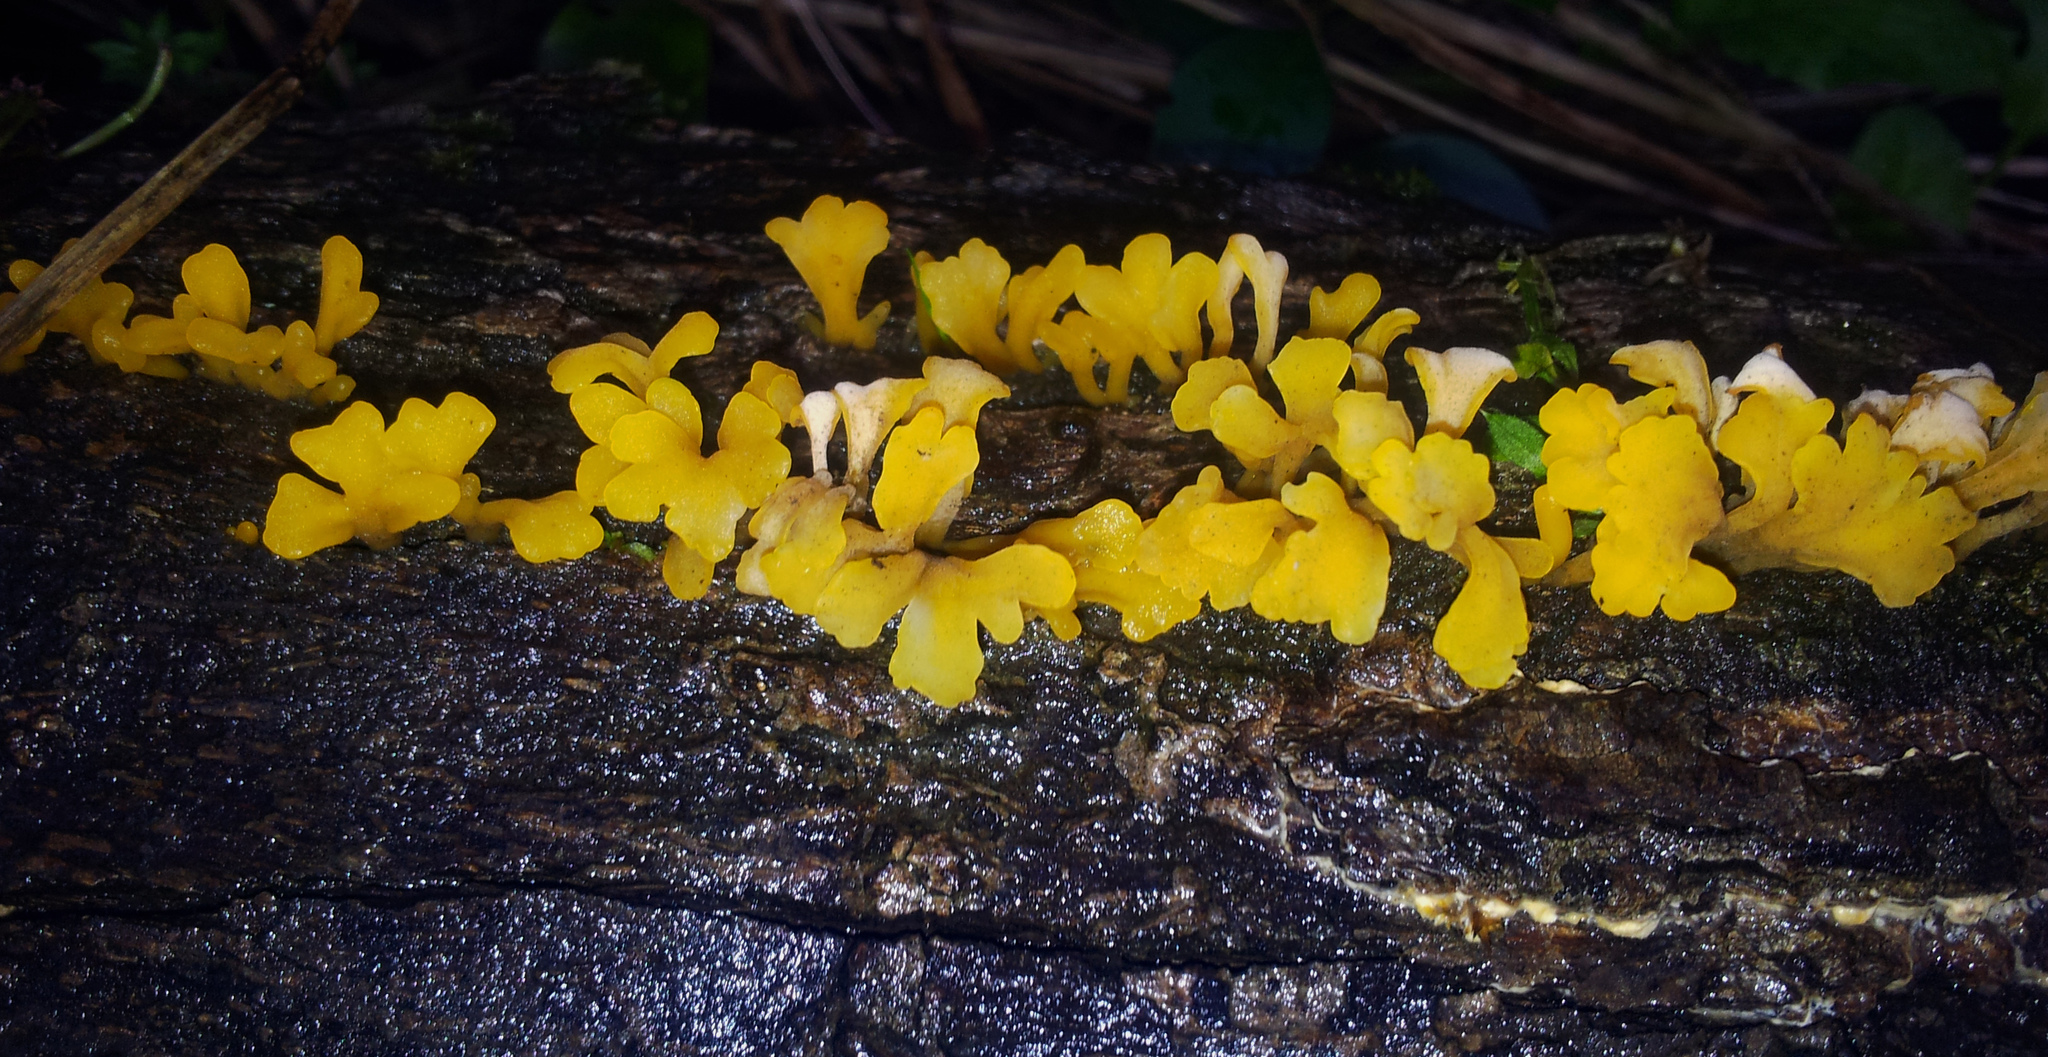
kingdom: Fungi
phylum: Basidiomycota
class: Dacrymycetes
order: Dacrymycetales
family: Dacrymycetaceae
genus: Dacrymyces
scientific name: Dacrymyces spathularius
